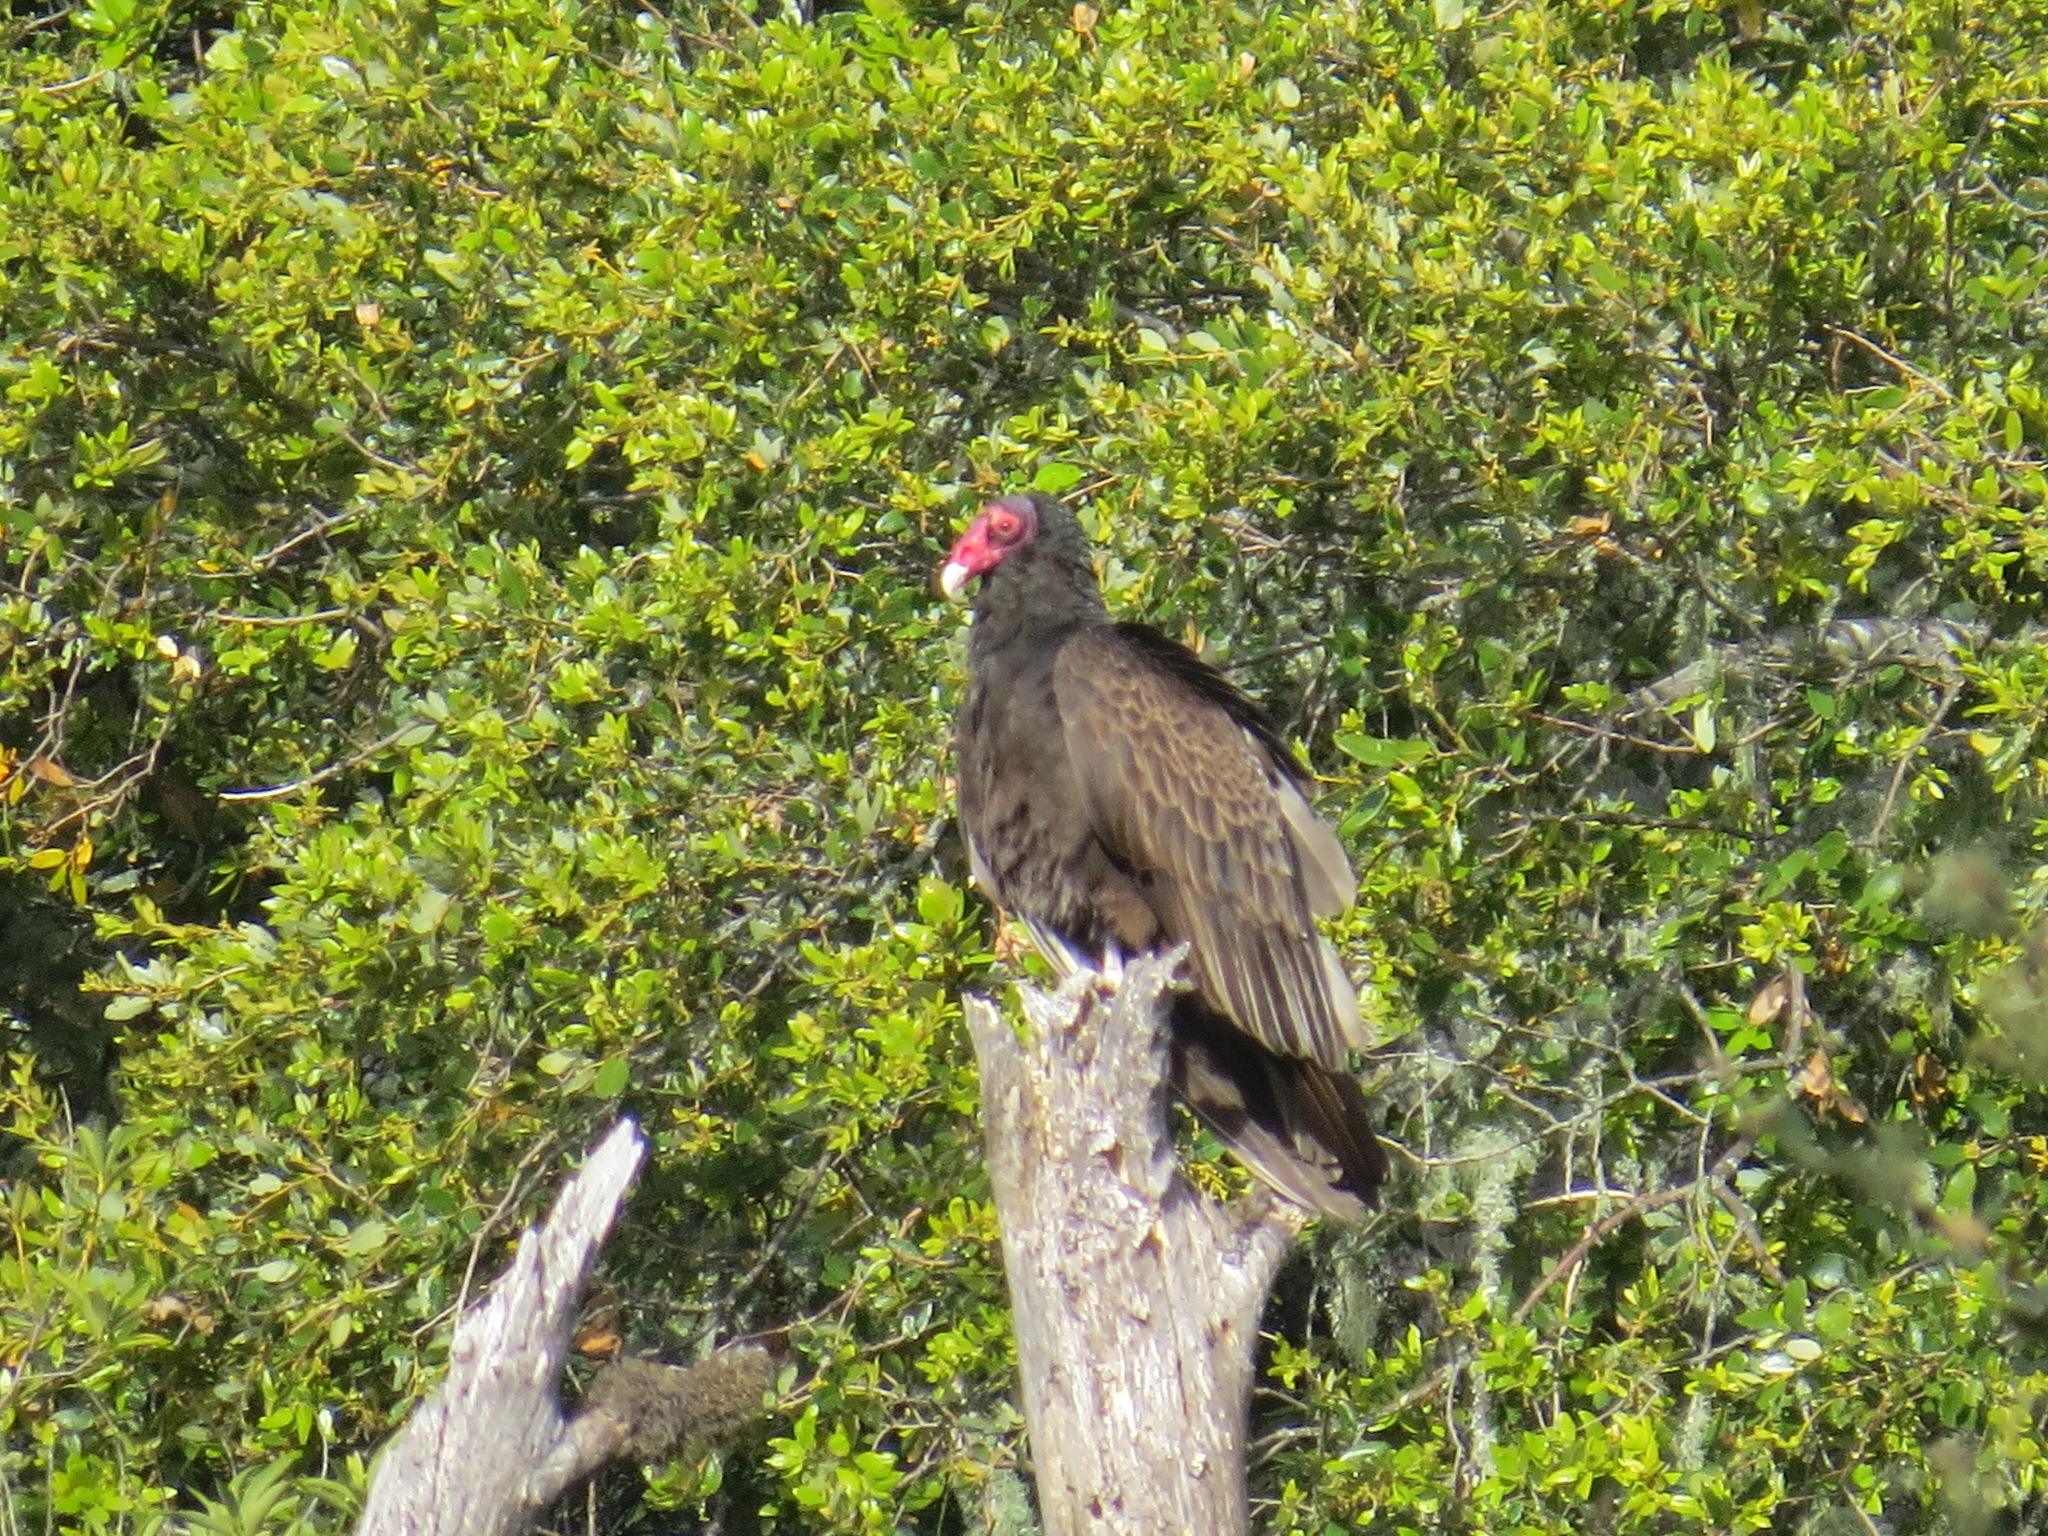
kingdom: Animalia
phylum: Chordata
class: Aves
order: Accipitriformes
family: Cathartidae
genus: Cathartes
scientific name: Cathartes aura
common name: Turkey vulture
